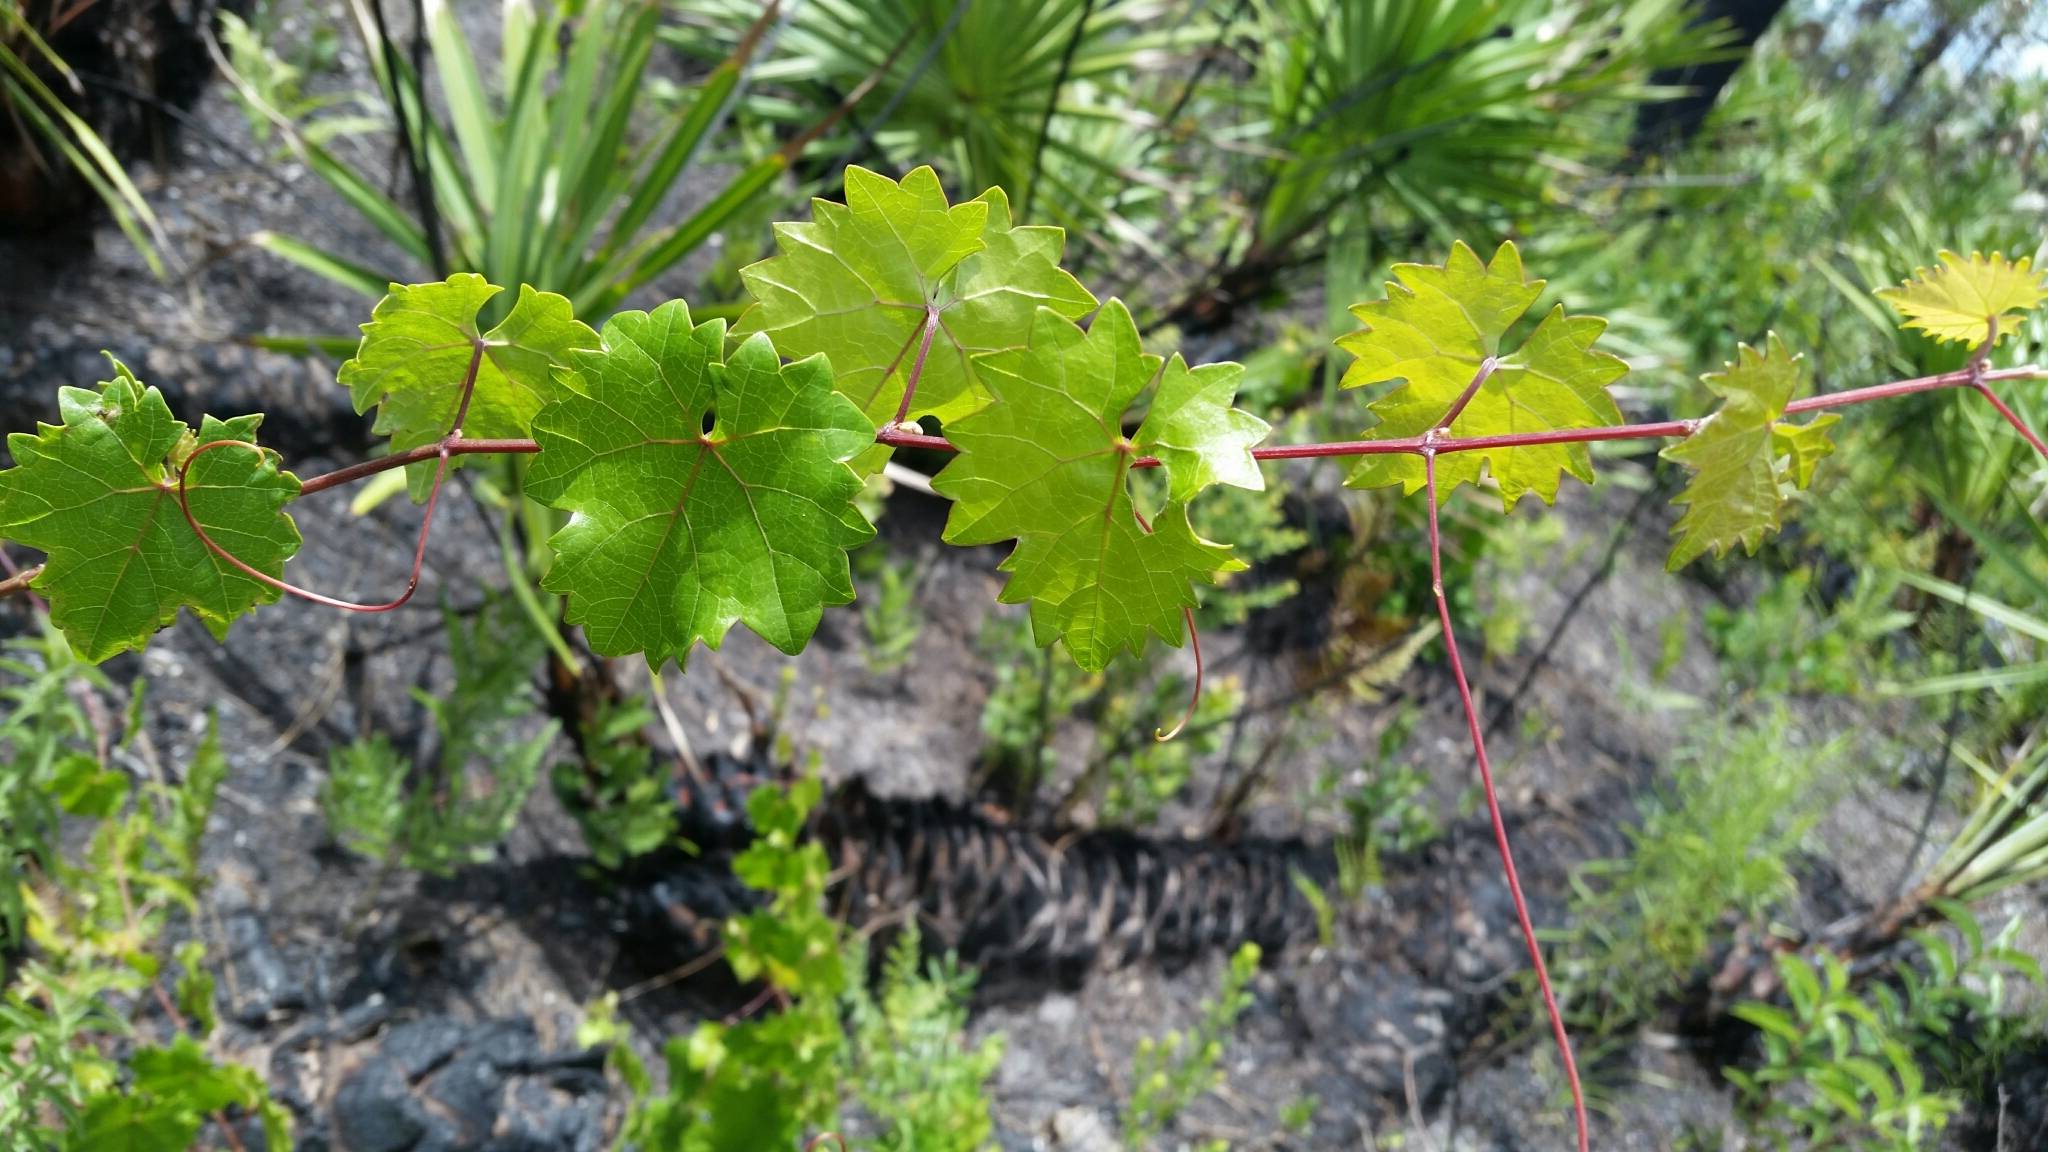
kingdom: Plantae
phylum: Tracheophyta
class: Magnoliopsida
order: Vitales
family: Vitaceae
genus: Vitis
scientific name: Vitis rotundifolia
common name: Muscadine grape
